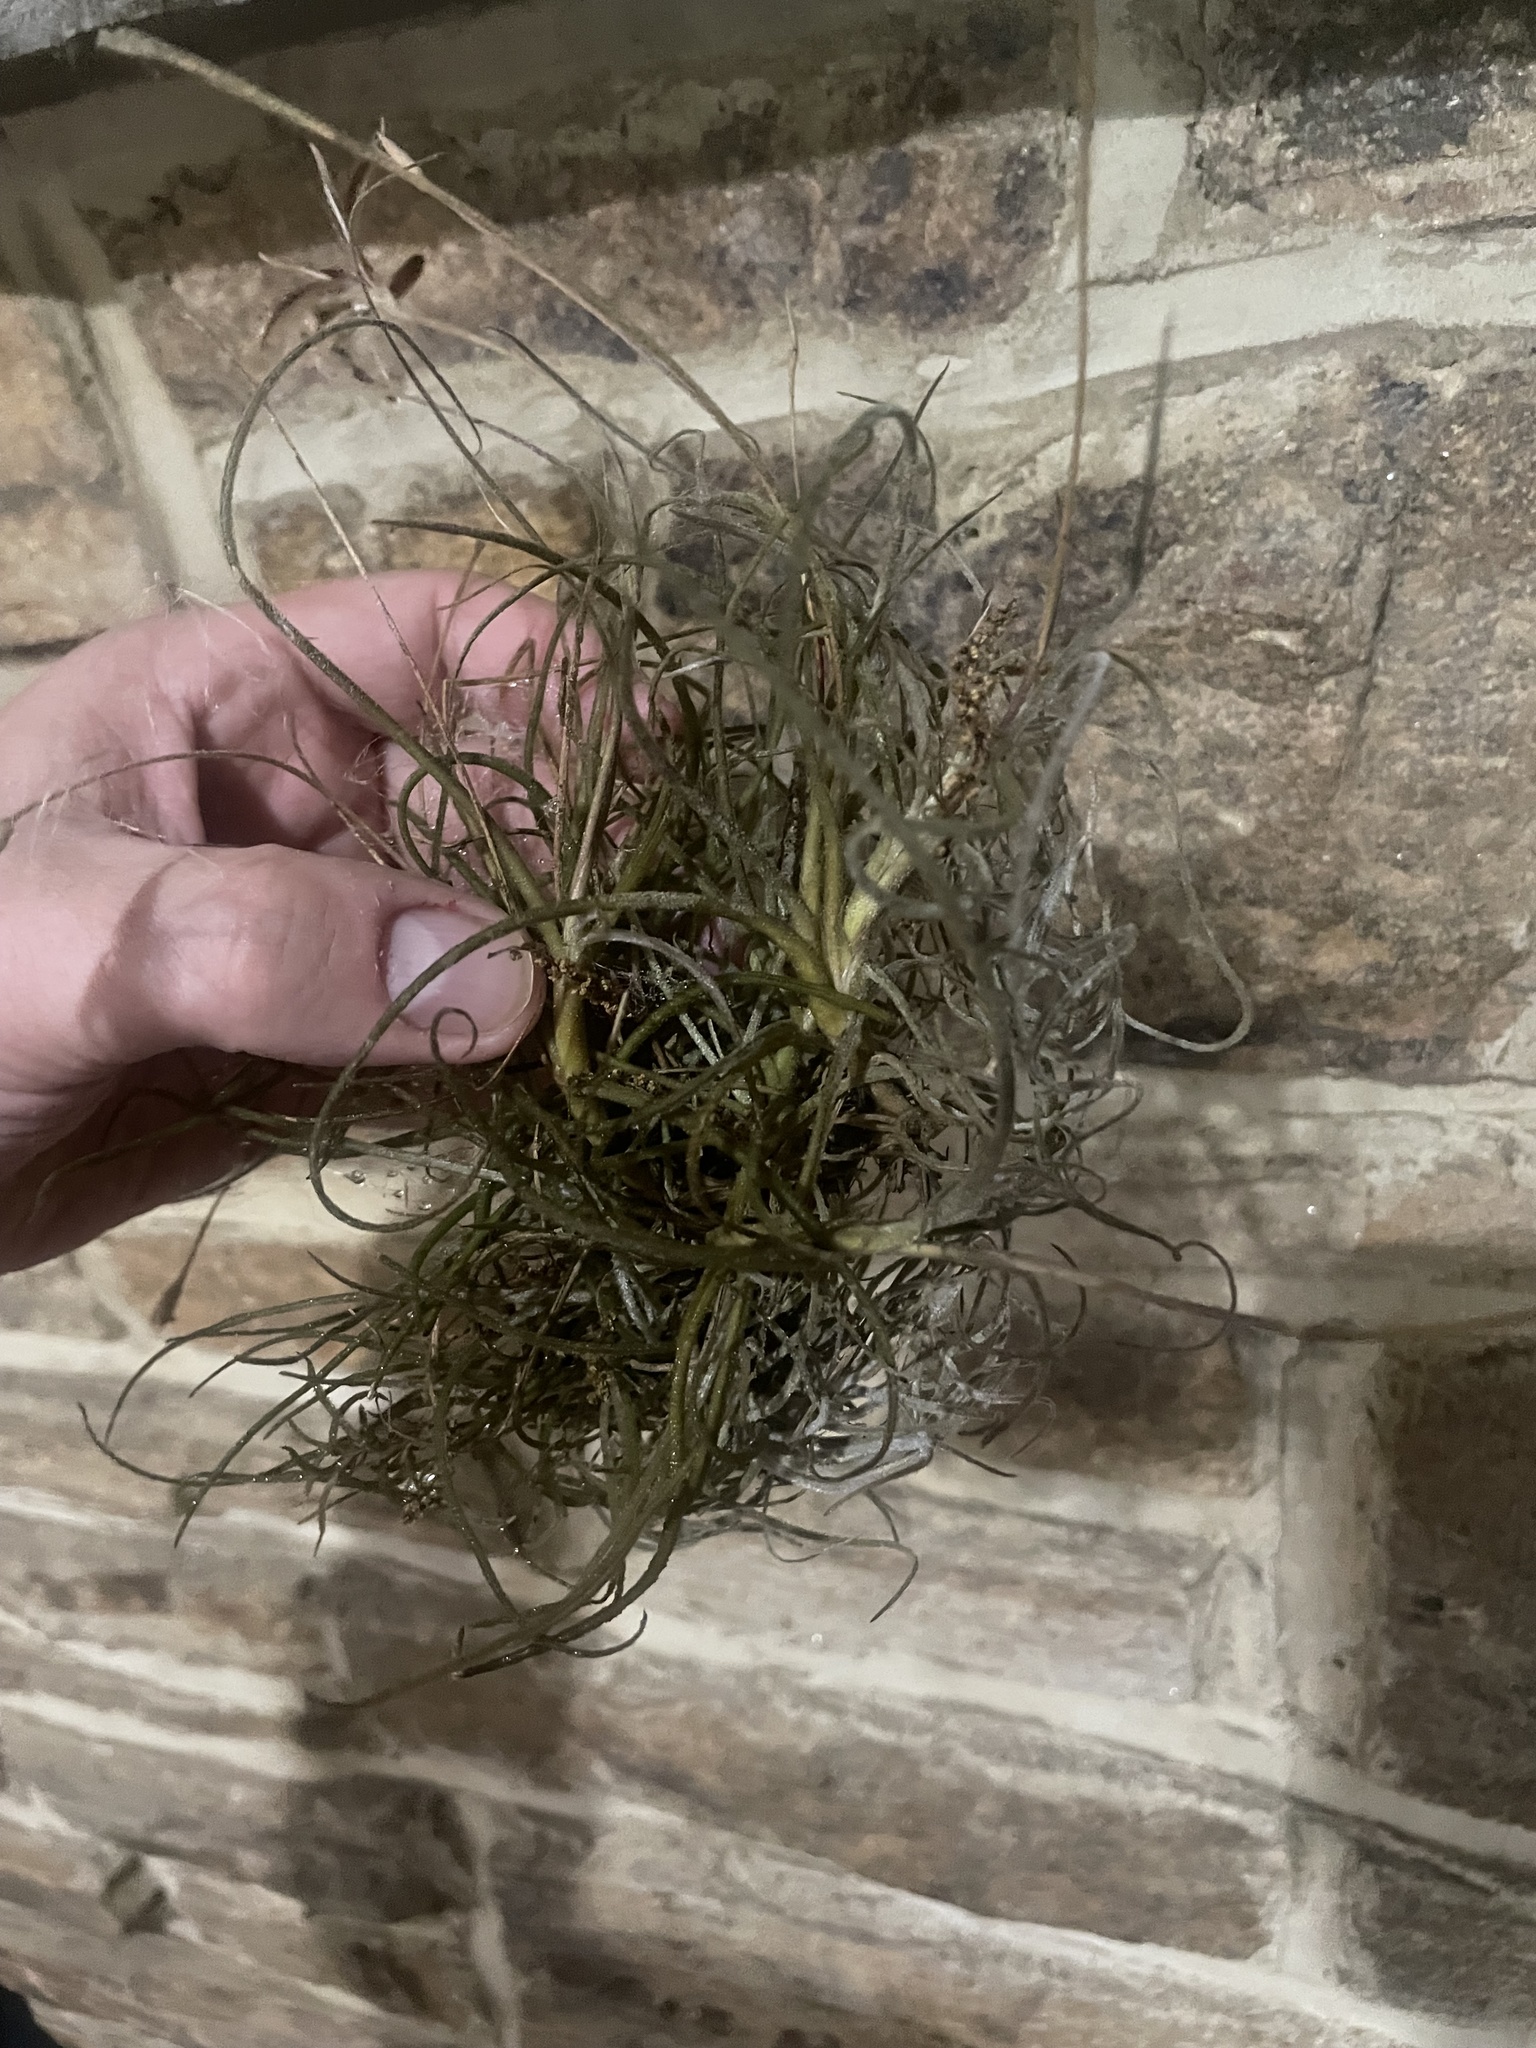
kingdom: Plantae
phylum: Tracheophyta
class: Liliopsida
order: Poales
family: Bromeliaceae
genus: Tillandsia
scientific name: Tillandsia recurvata
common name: Small ballmoss
